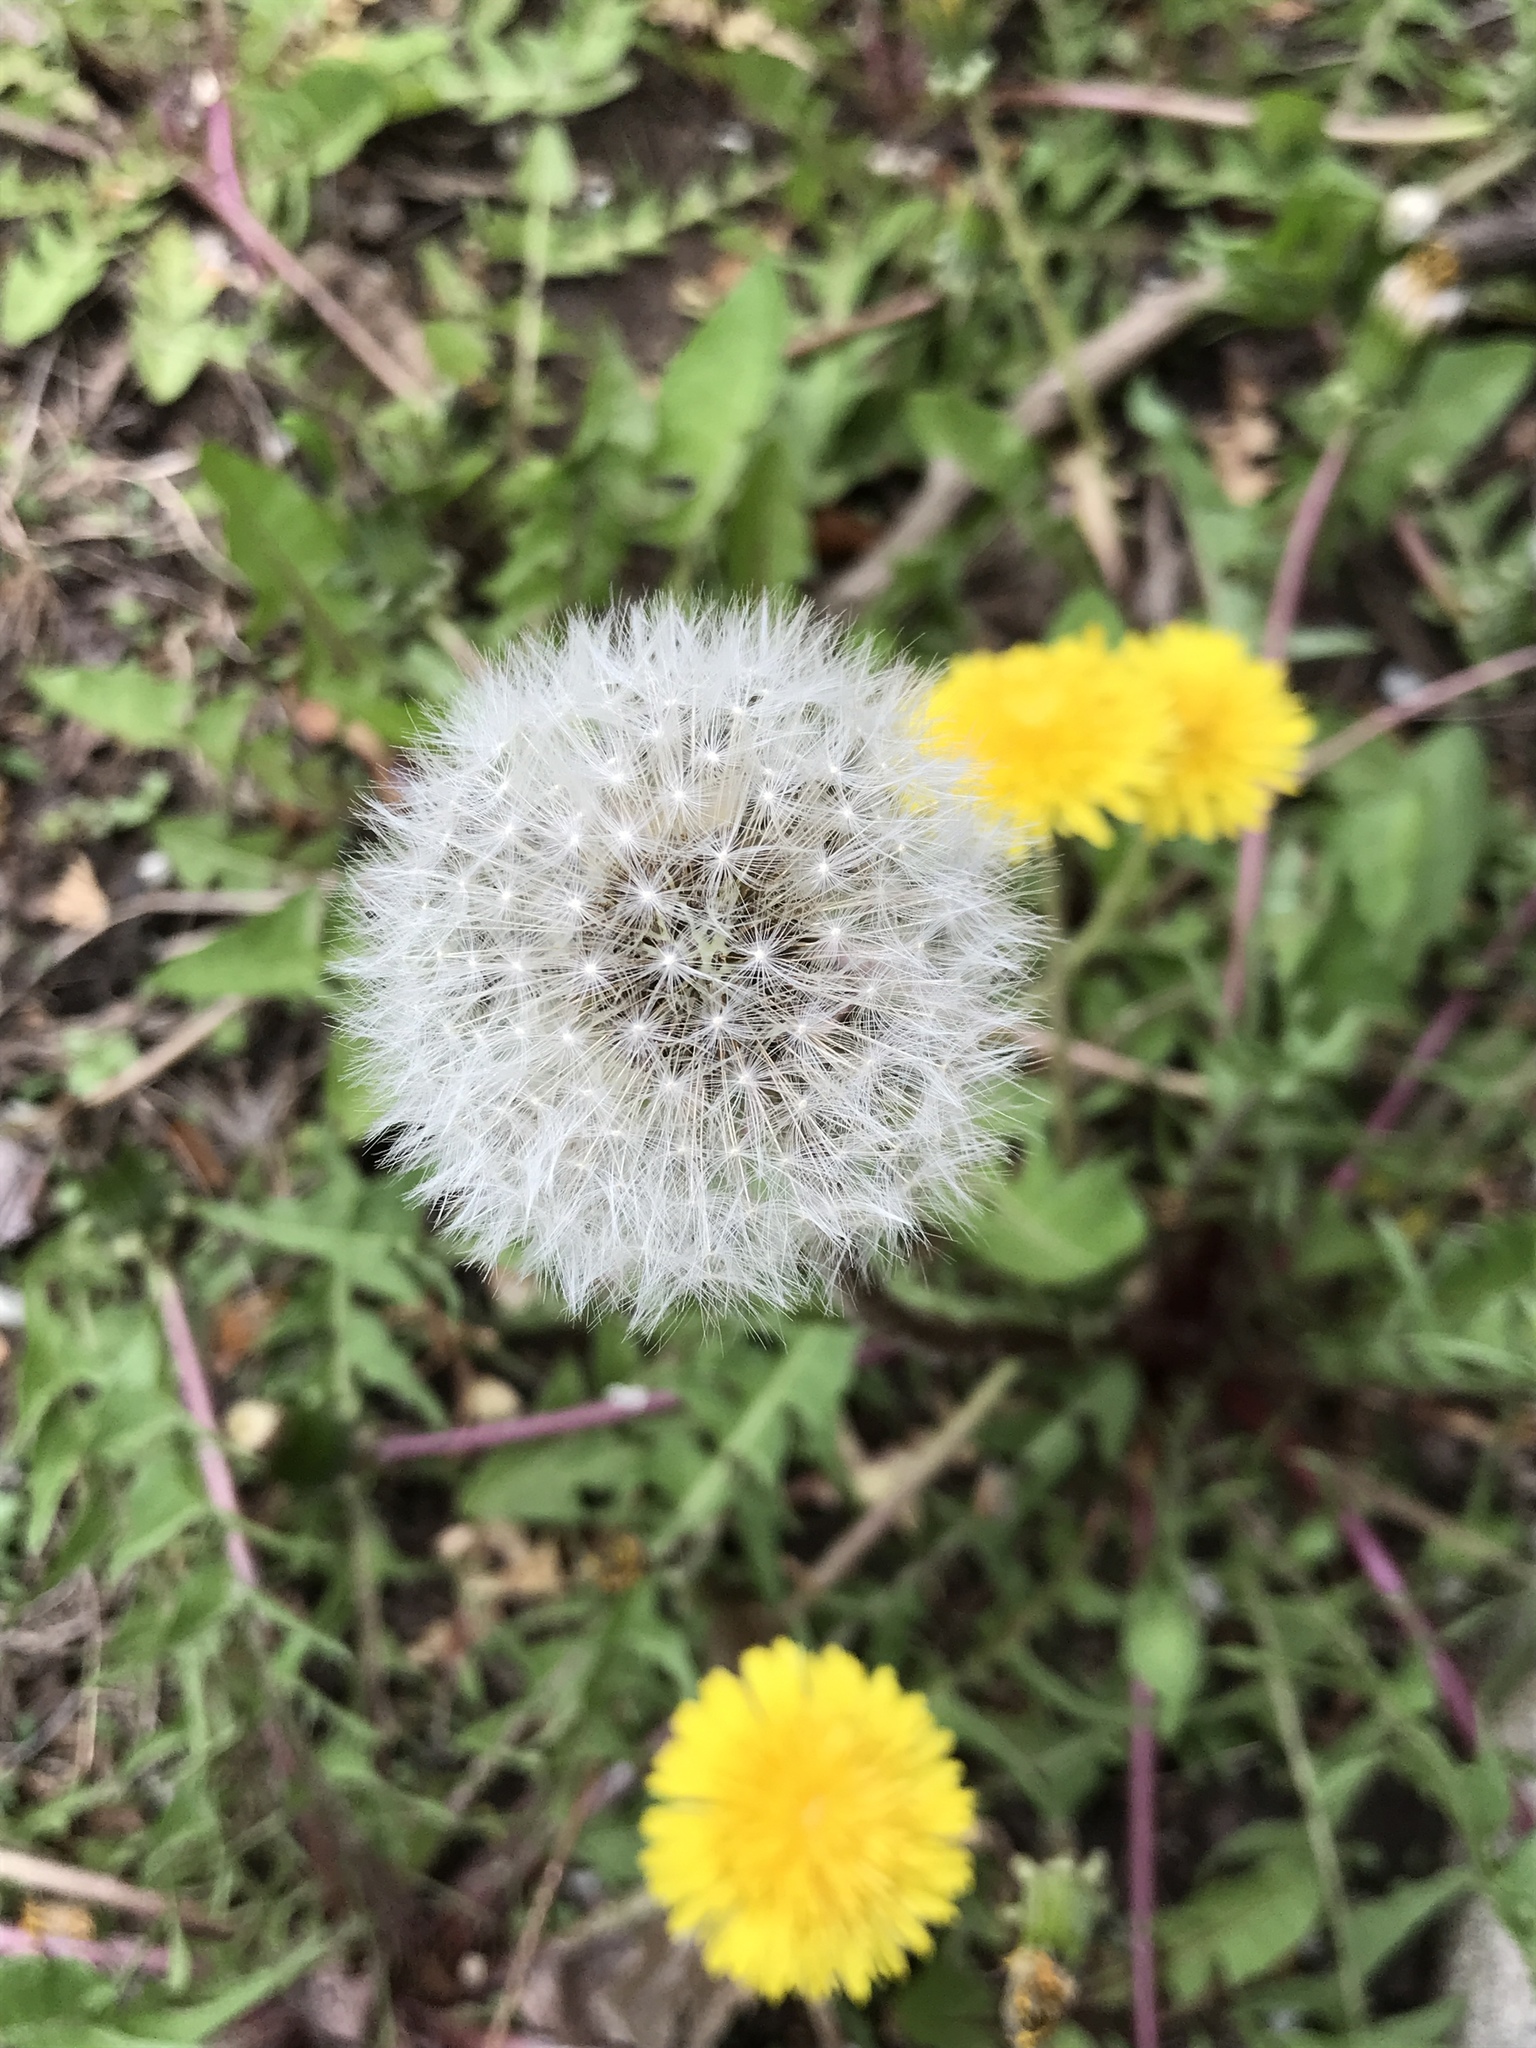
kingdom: Plantae
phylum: Tracheophyta
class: Magnoliopsida
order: Asterales
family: Asteraceae
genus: Taraxacum
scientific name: Taraxacum officinale
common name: Common dandelion
